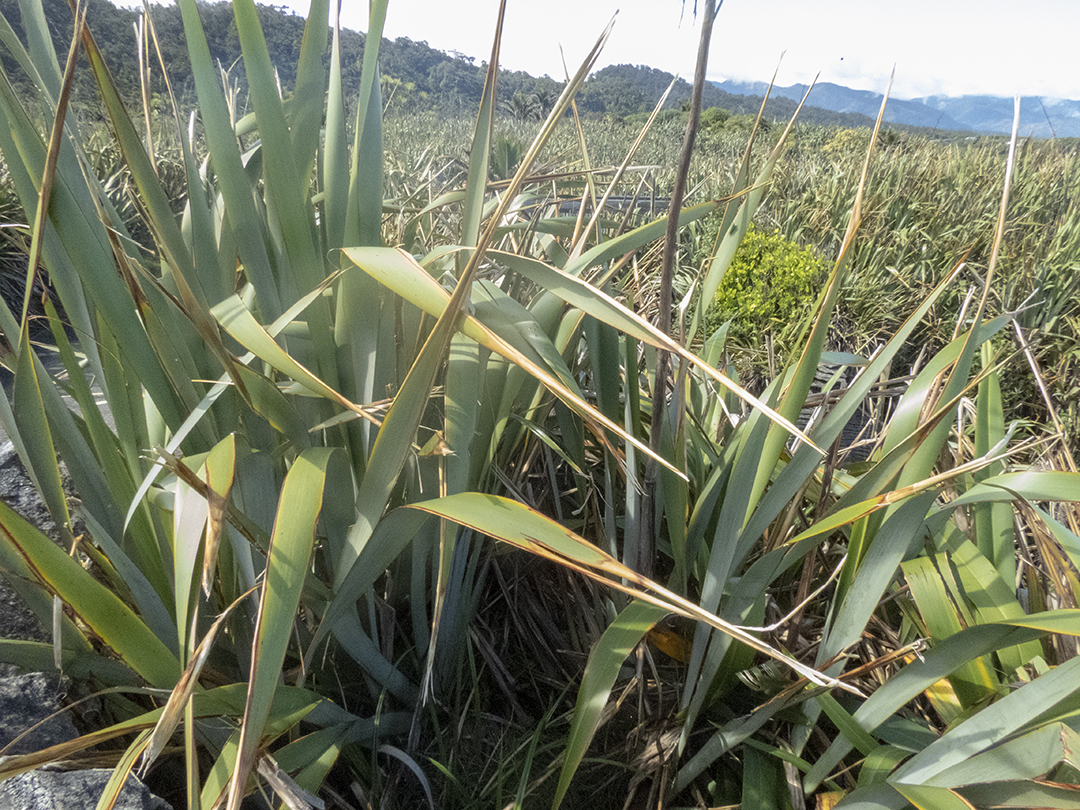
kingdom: Plantae
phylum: Tracheophyta
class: Liliopsida
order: Asparagales
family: Asphodelaceae
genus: Phormium
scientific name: Phormium tenax
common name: New zealand flax
